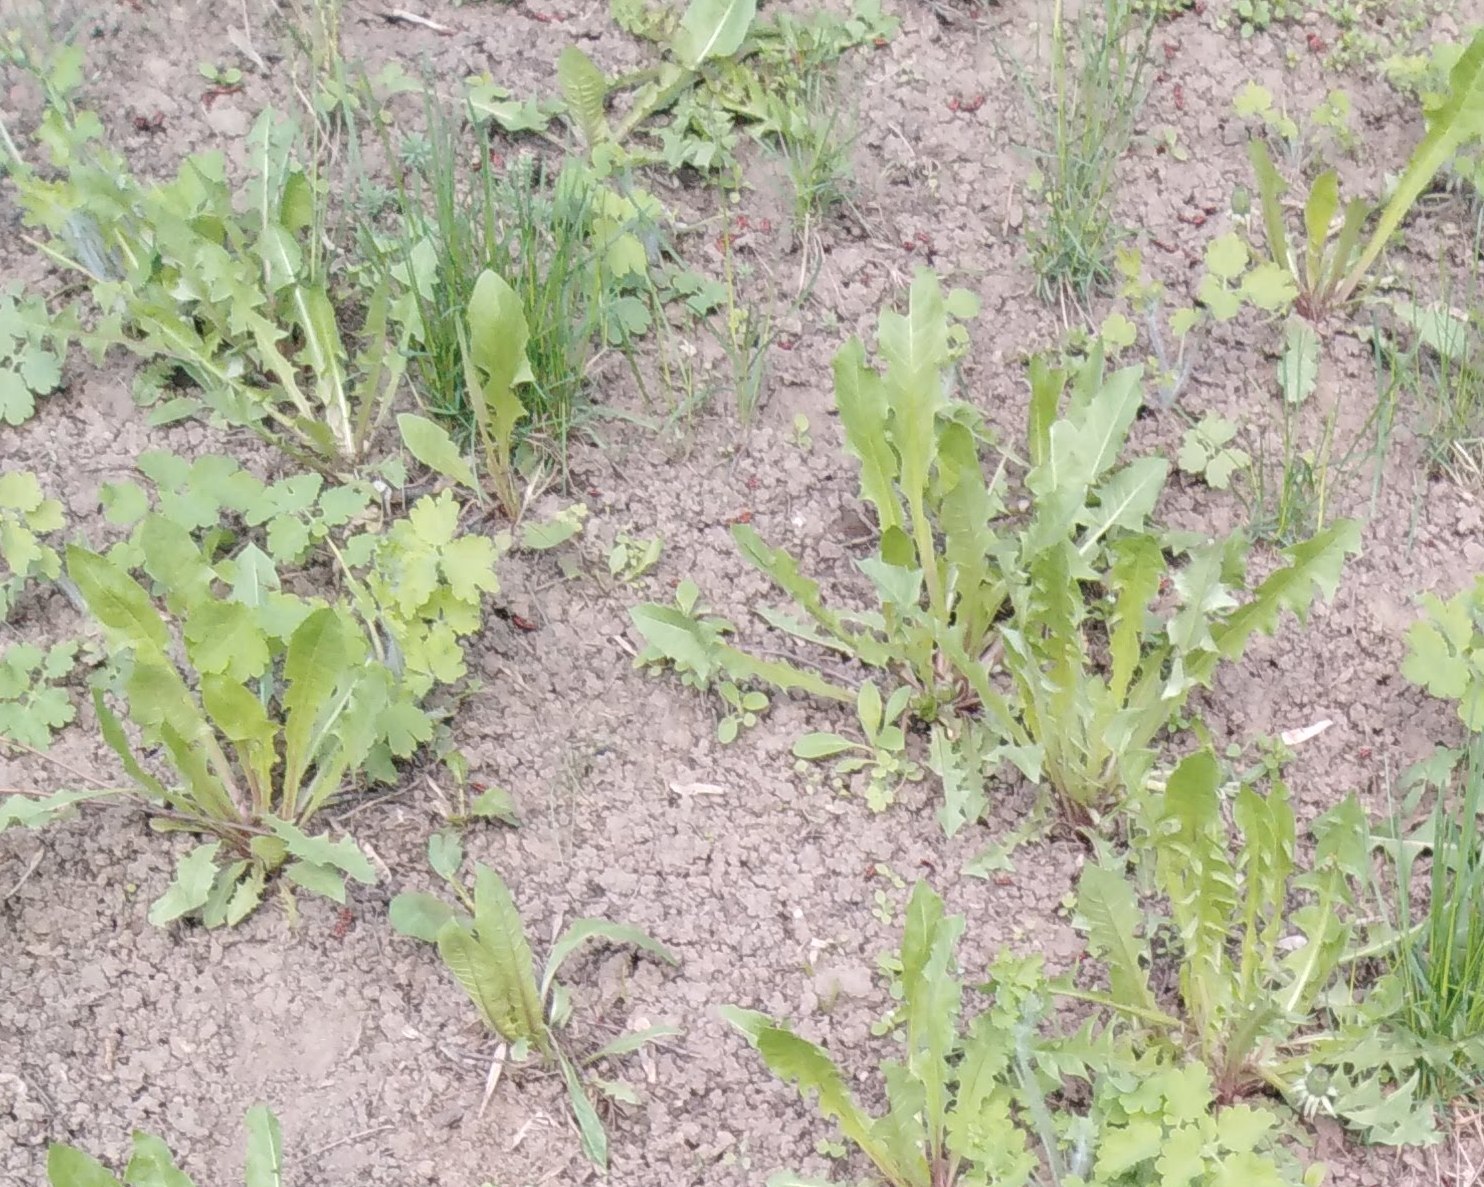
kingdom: Plantae
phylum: Tracheophyta
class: Magnoliopsida
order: Asterales
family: Asteraceae
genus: Taraxacum
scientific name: Taraxacum officinale
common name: Common dandelion
